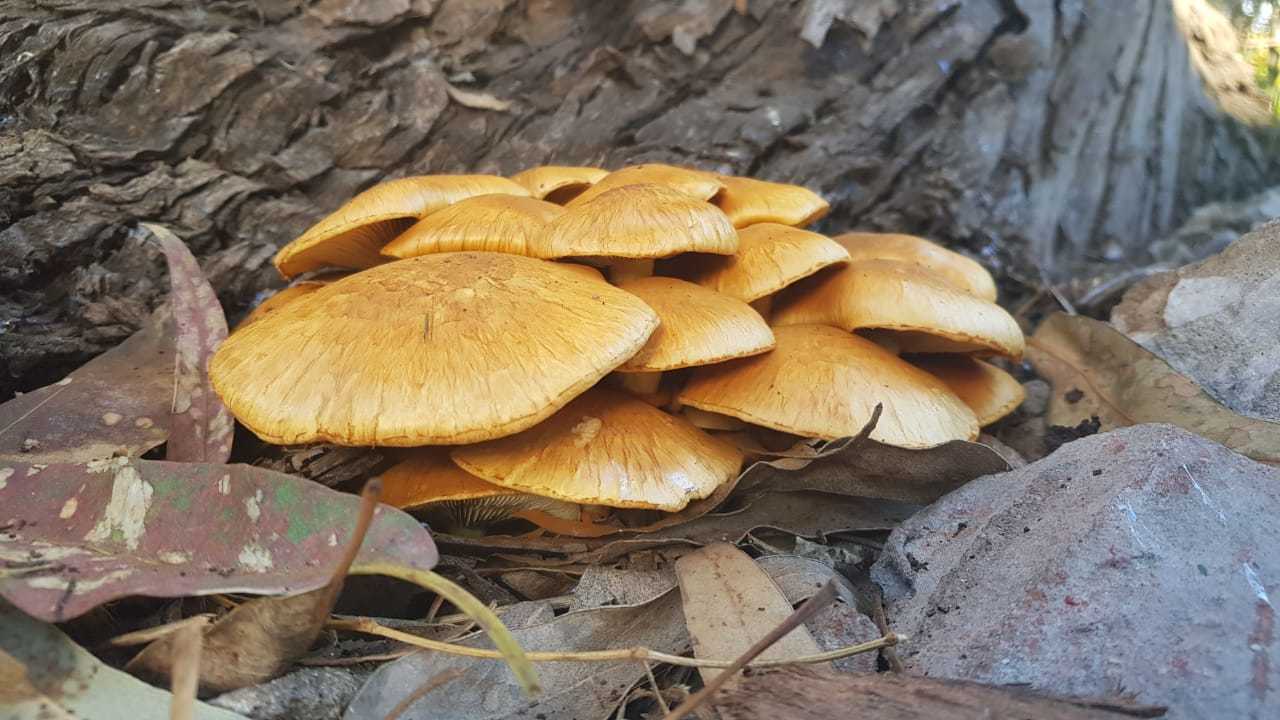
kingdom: Fungi
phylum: Basidiomycota
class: Agaricomycetes
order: Agaricales
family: Hymenogastraceae
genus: Gymnopilus
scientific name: Gymnopilus junonius
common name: Spectacular rustgill
